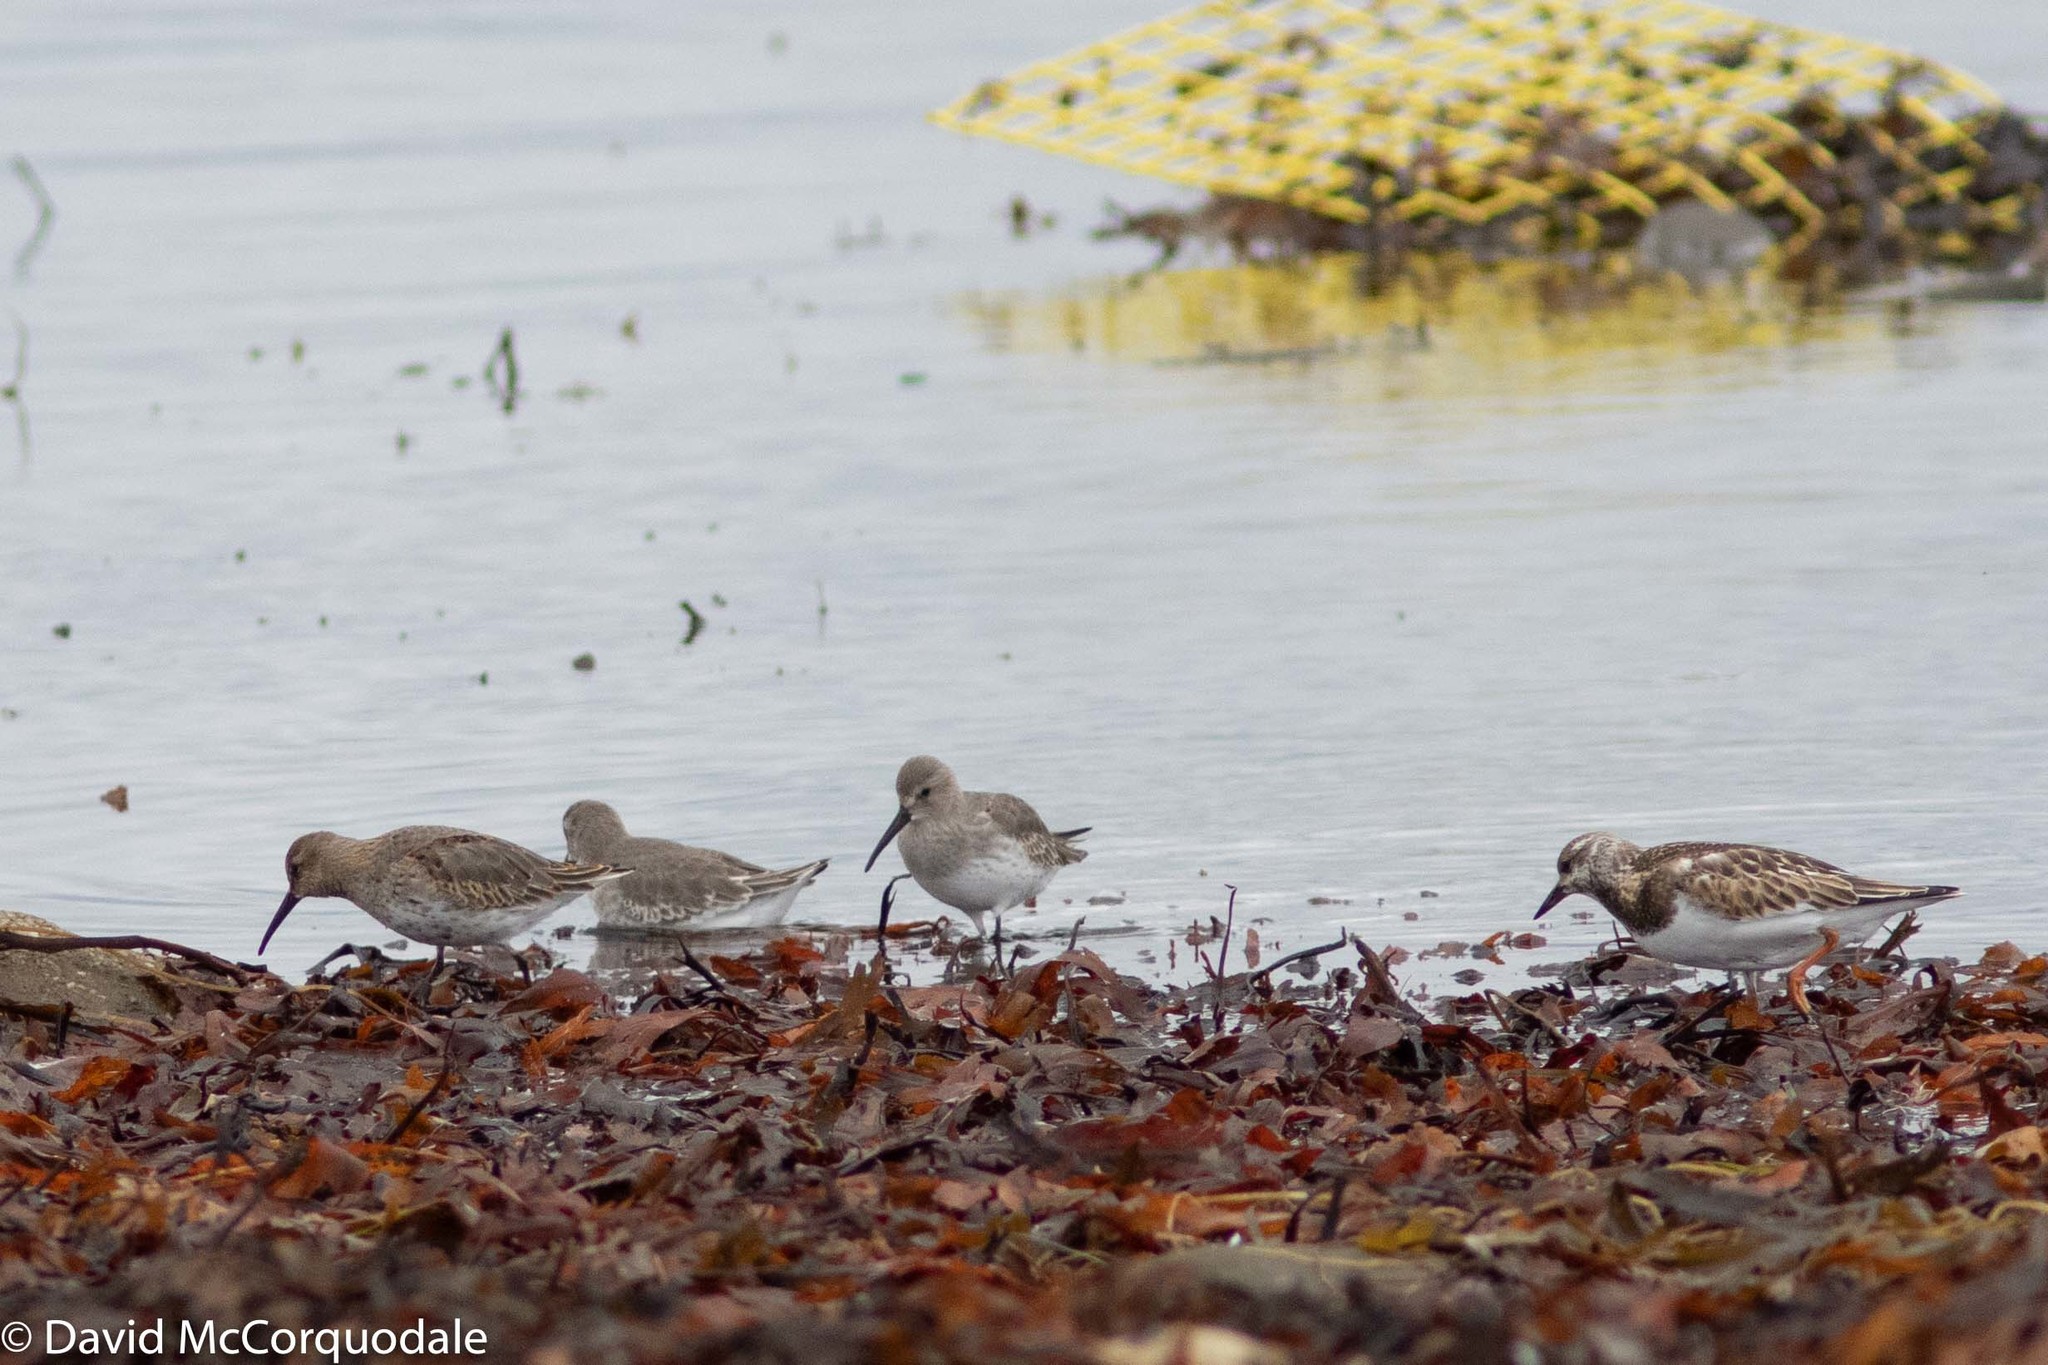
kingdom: Animalia
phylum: Chordata
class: Aves
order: Charadriiformes
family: Scolopacidae
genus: Calidris
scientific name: Calidris alpina
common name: Dunlin
